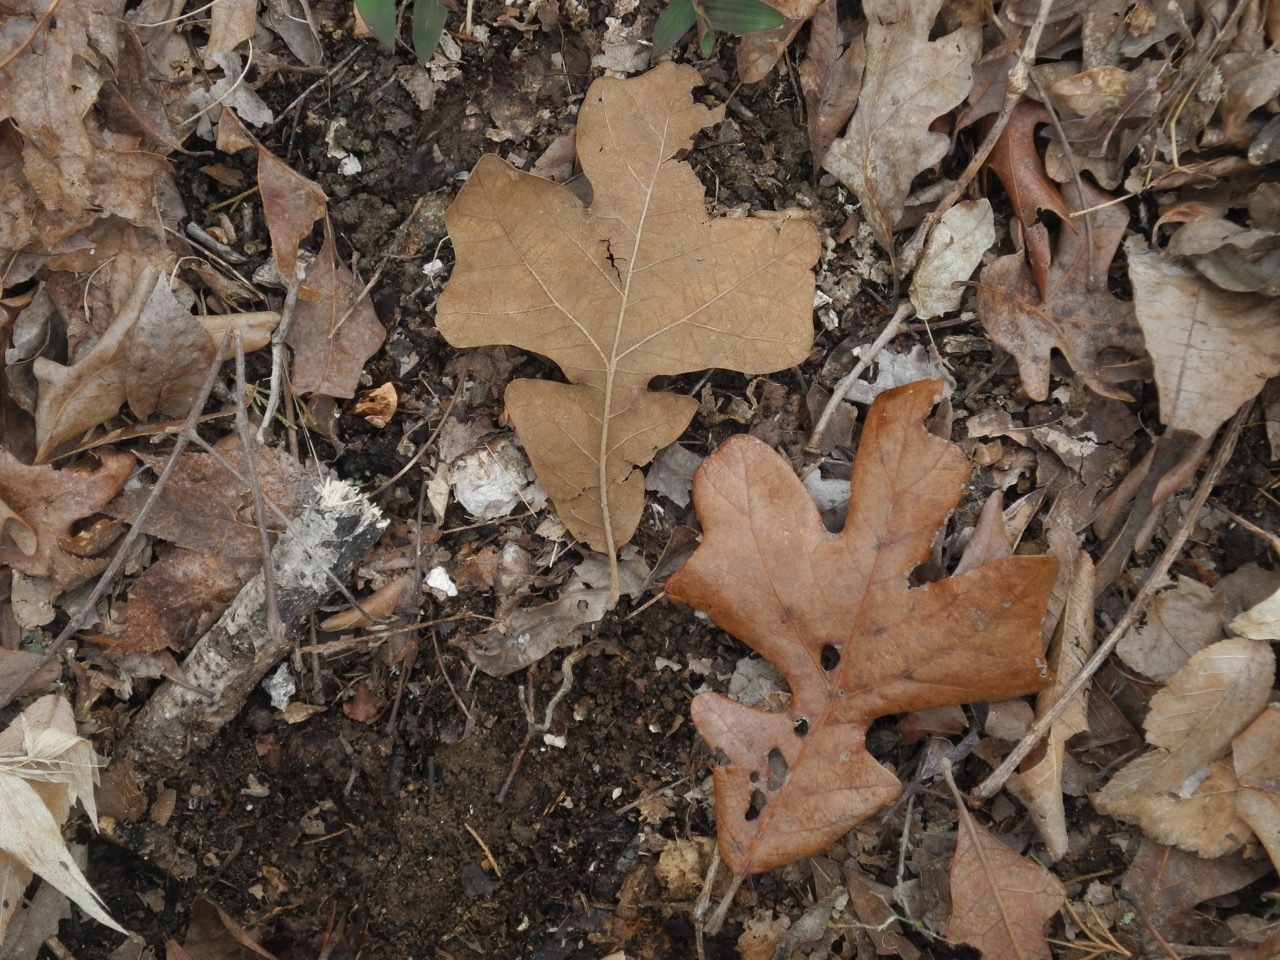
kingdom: Plantae
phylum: Tracheophyta
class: Magnoliopsida
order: Fagales
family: Fagaceae
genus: Quercus
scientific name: Quercus stellata
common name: Post oak
